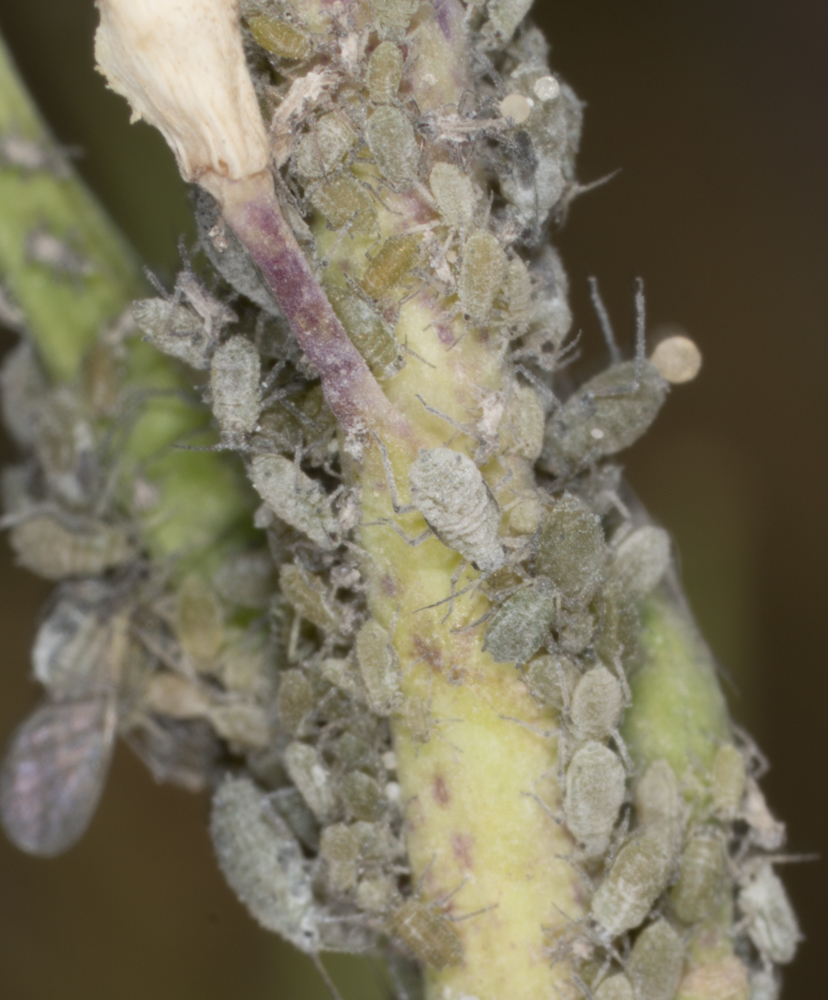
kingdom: Animalia
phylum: Arthropoda
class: Insecta
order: Hemiptera
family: Aphididae
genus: Brevicoryne
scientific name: Brevicoryne brassicae
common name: Cabbage aphid
